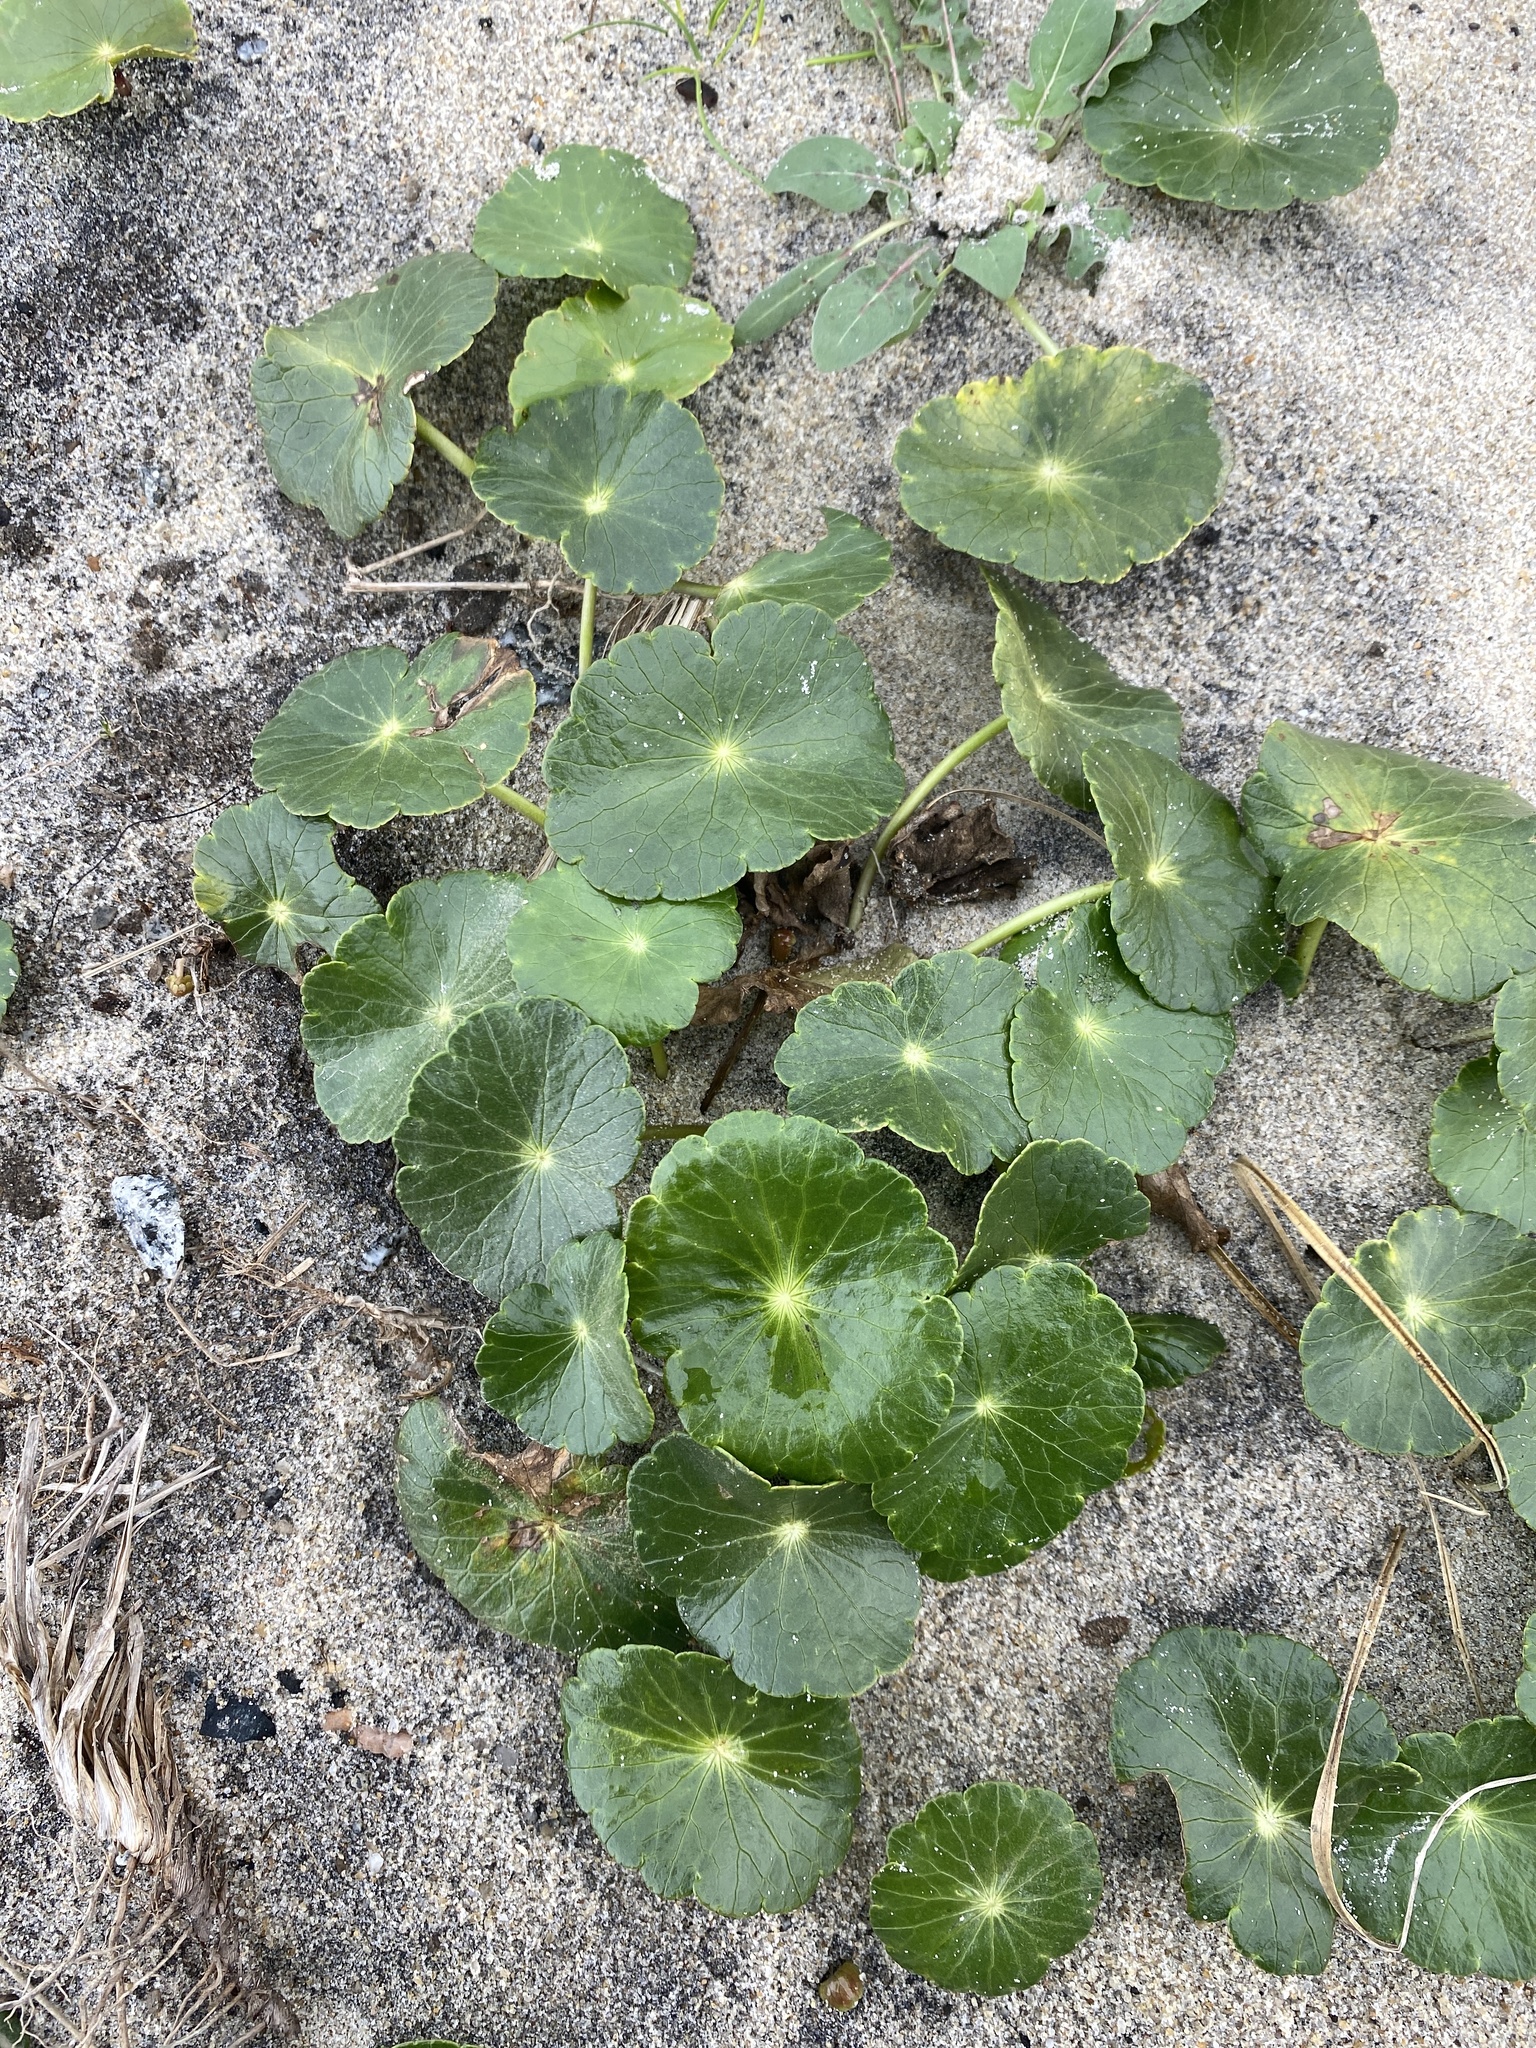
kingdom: Plantae
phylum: Tracheophyta
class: Magnoliopsida
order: Apiales
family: Araliaceae
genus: Hydrocotyle
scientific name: Hydrocotyle bonariensis
